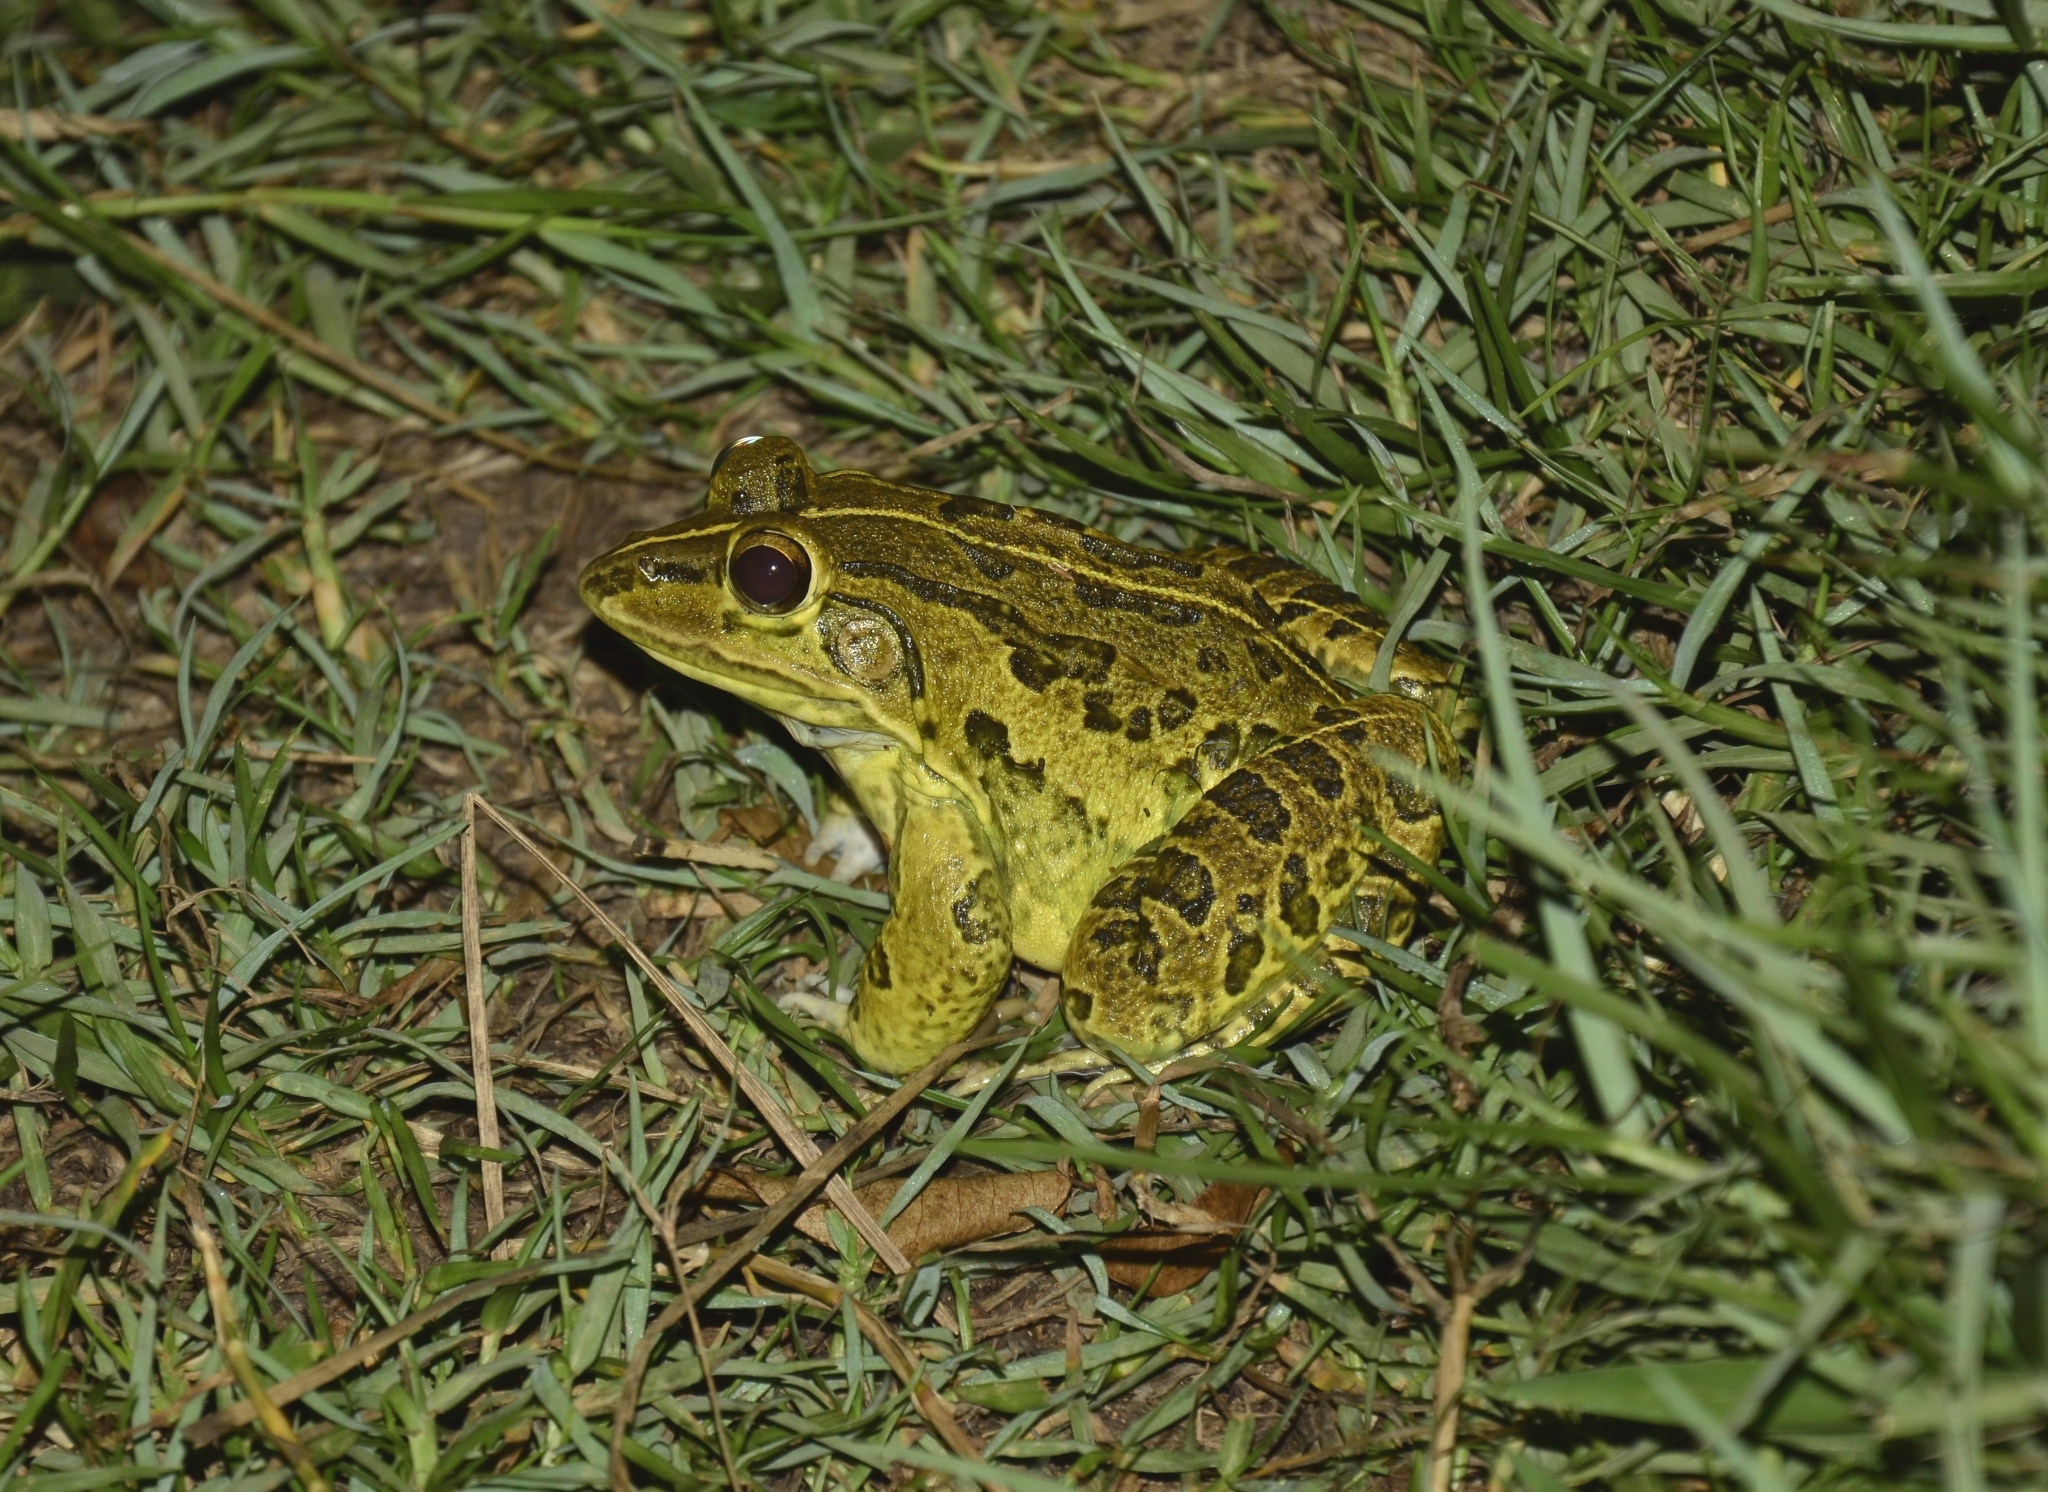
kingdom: Animalia
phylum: Chordata
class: Amphibia
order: Anura
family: Dicroglossidae
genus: Hoplobatrachus
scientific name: Hoplobatrachus tigerinus
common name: Indian bullfrog
